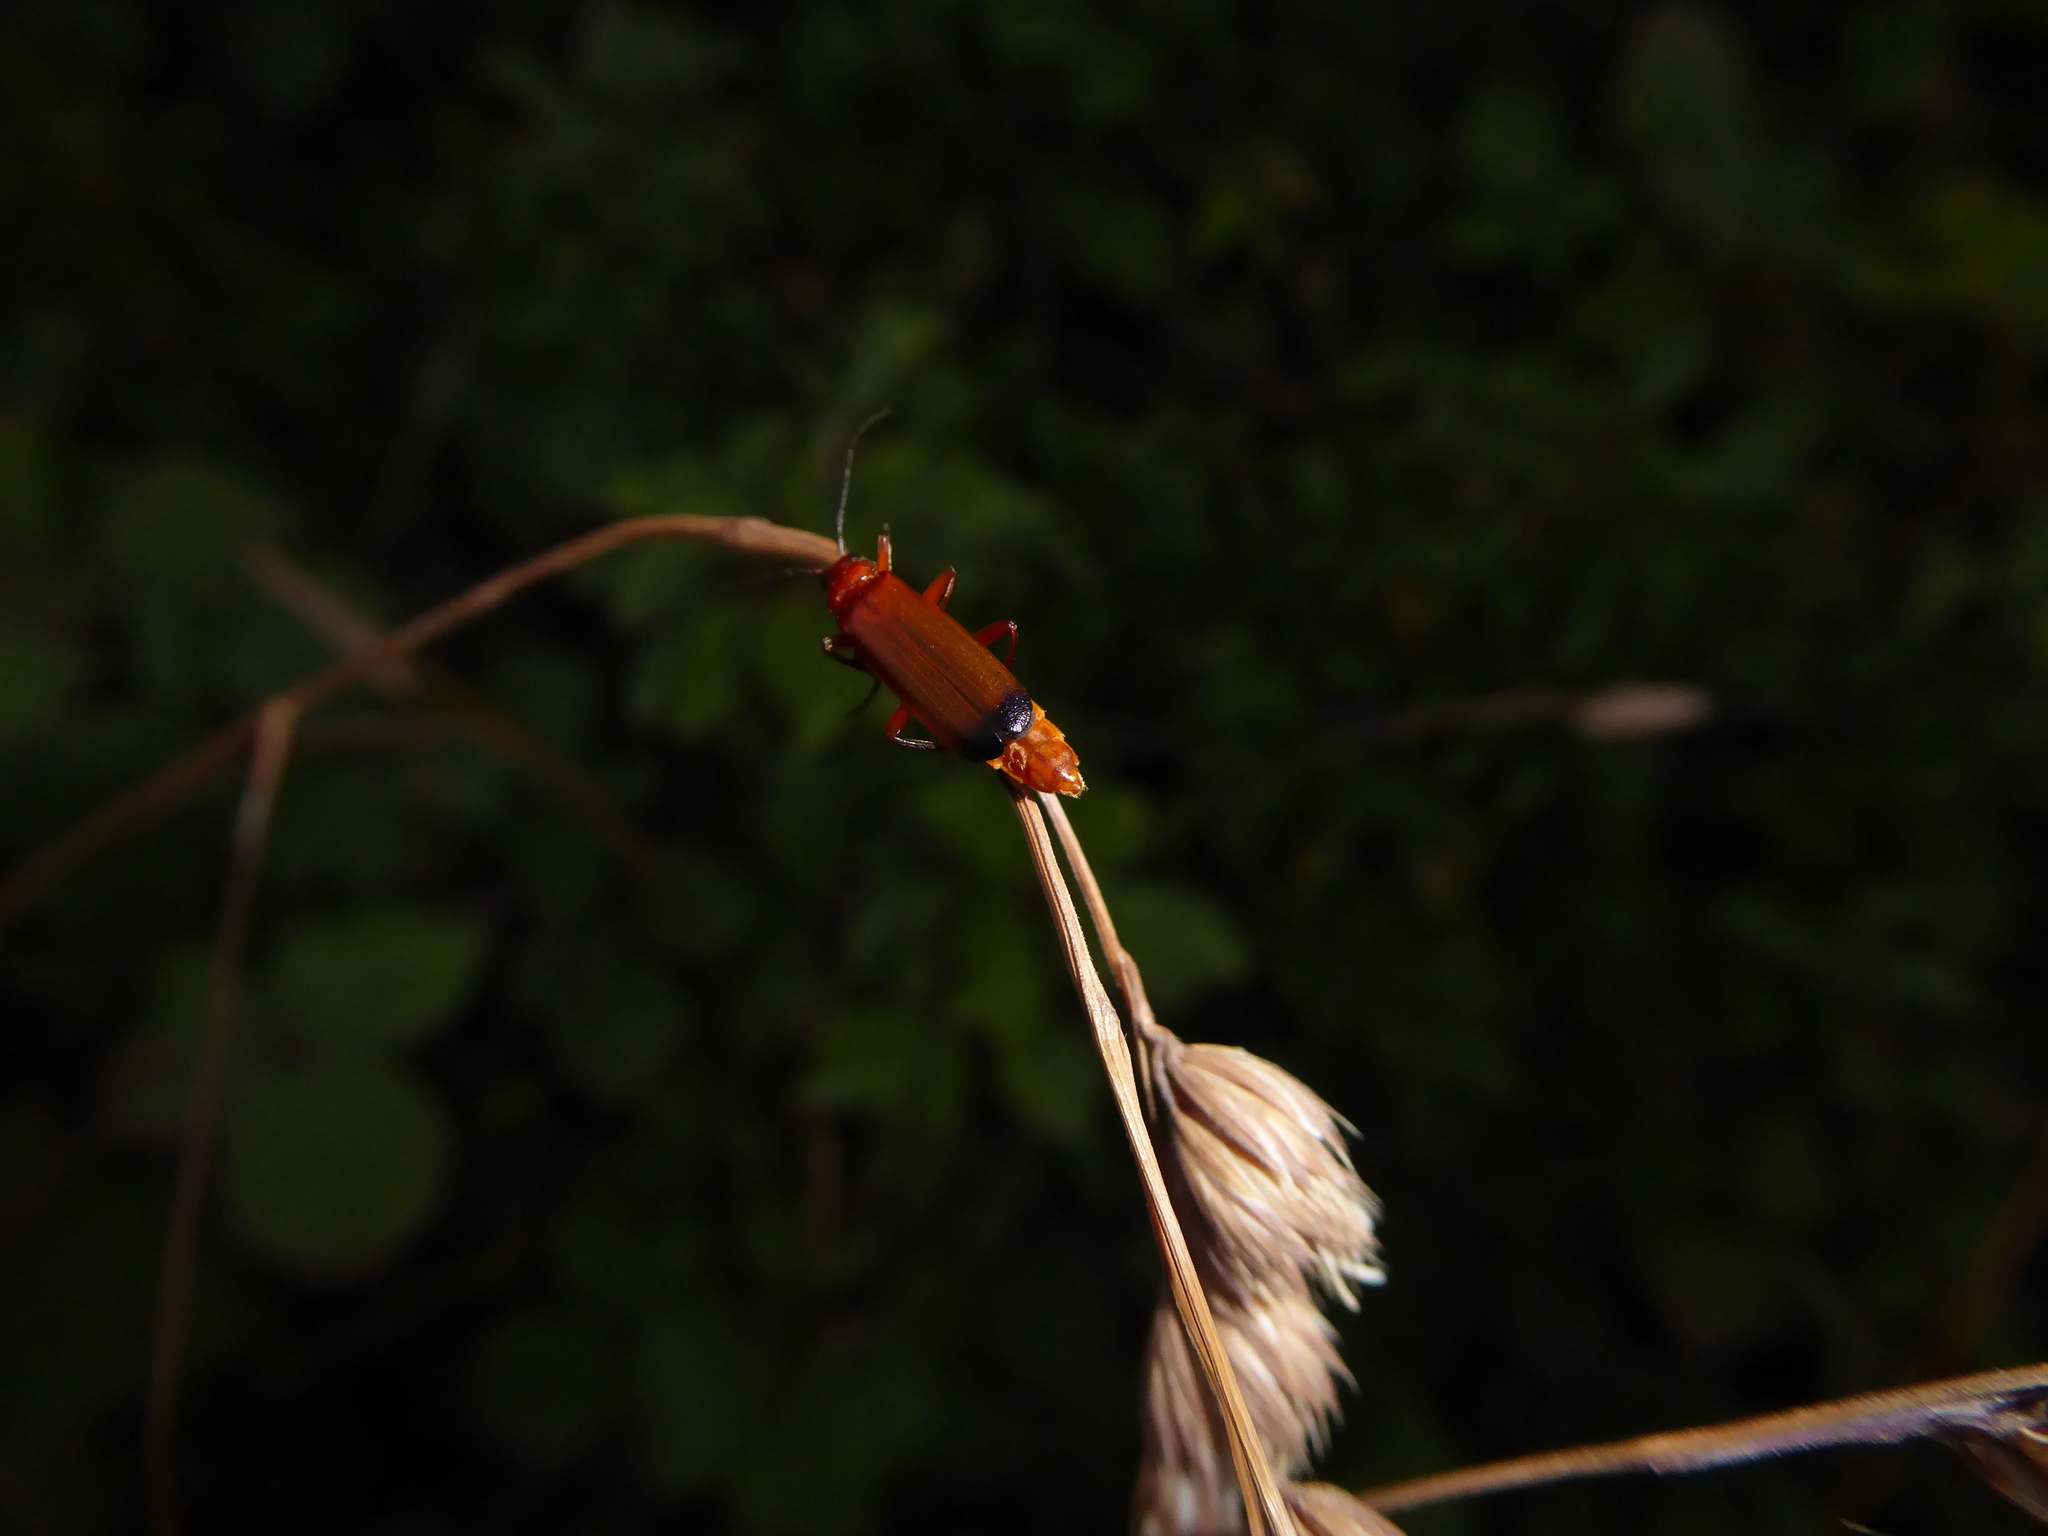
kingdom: Animalia
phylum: Arthropoda
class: Insecta
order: Coleoptera
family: Cantharidae
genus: Rhagonycha
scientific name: Rhagonycha fulva
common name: Common red soldier beetle
